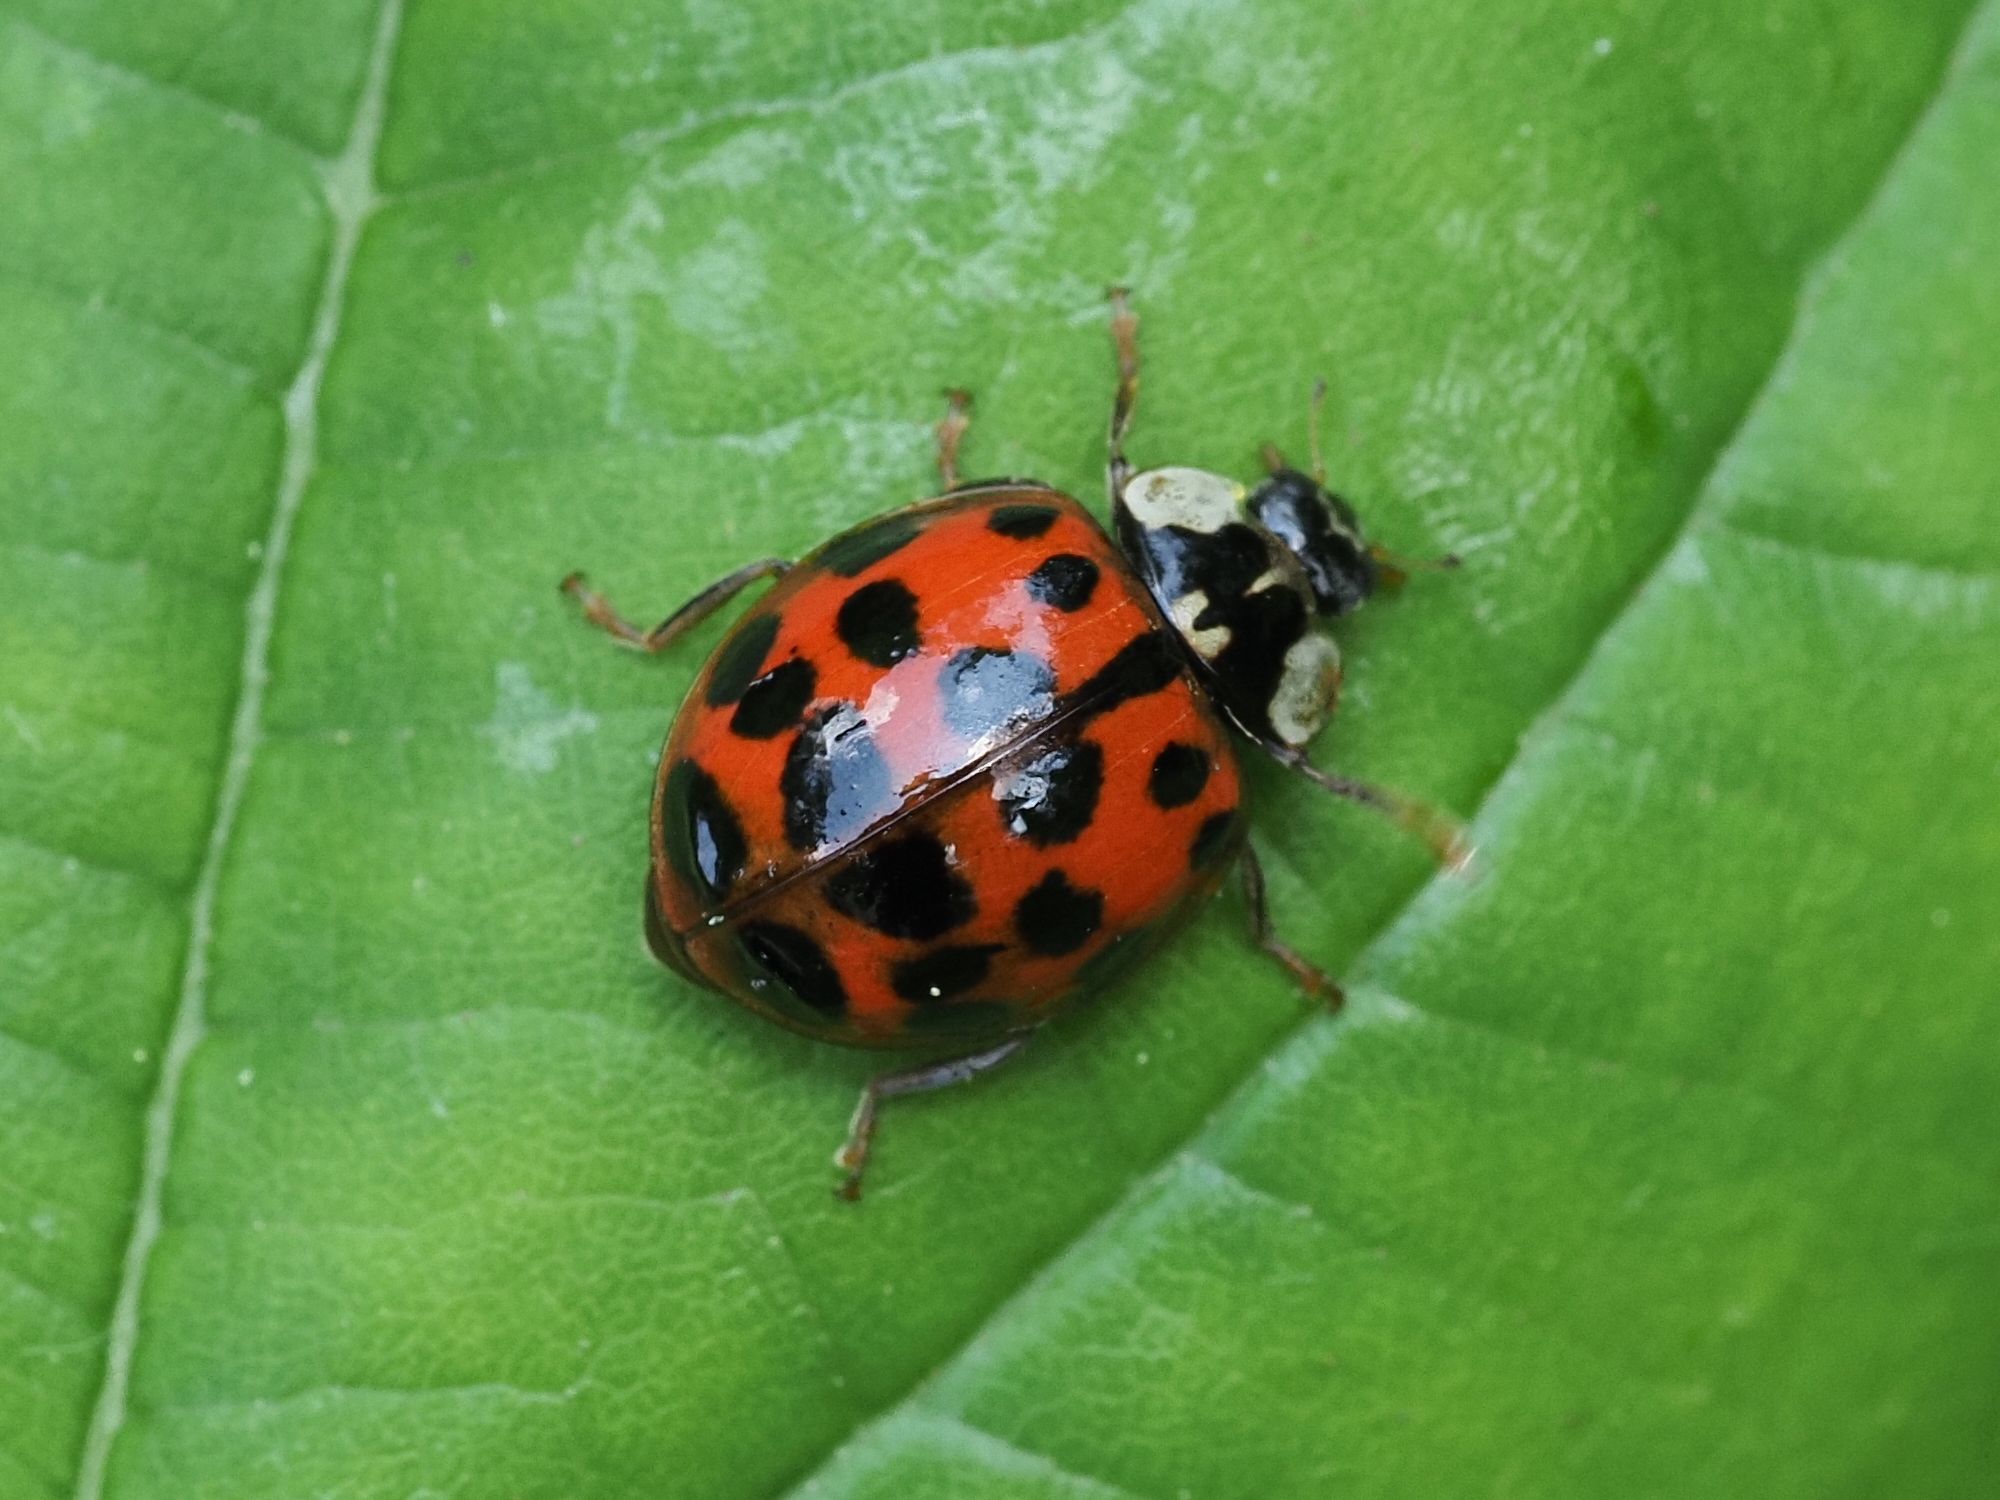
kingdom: Animalia
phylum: Arthropoda
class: Insecta
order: Coleoptera
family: Coccinellidae
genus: Harmonia
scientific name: Harmonia axyridis
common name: Harlequin ladybird
